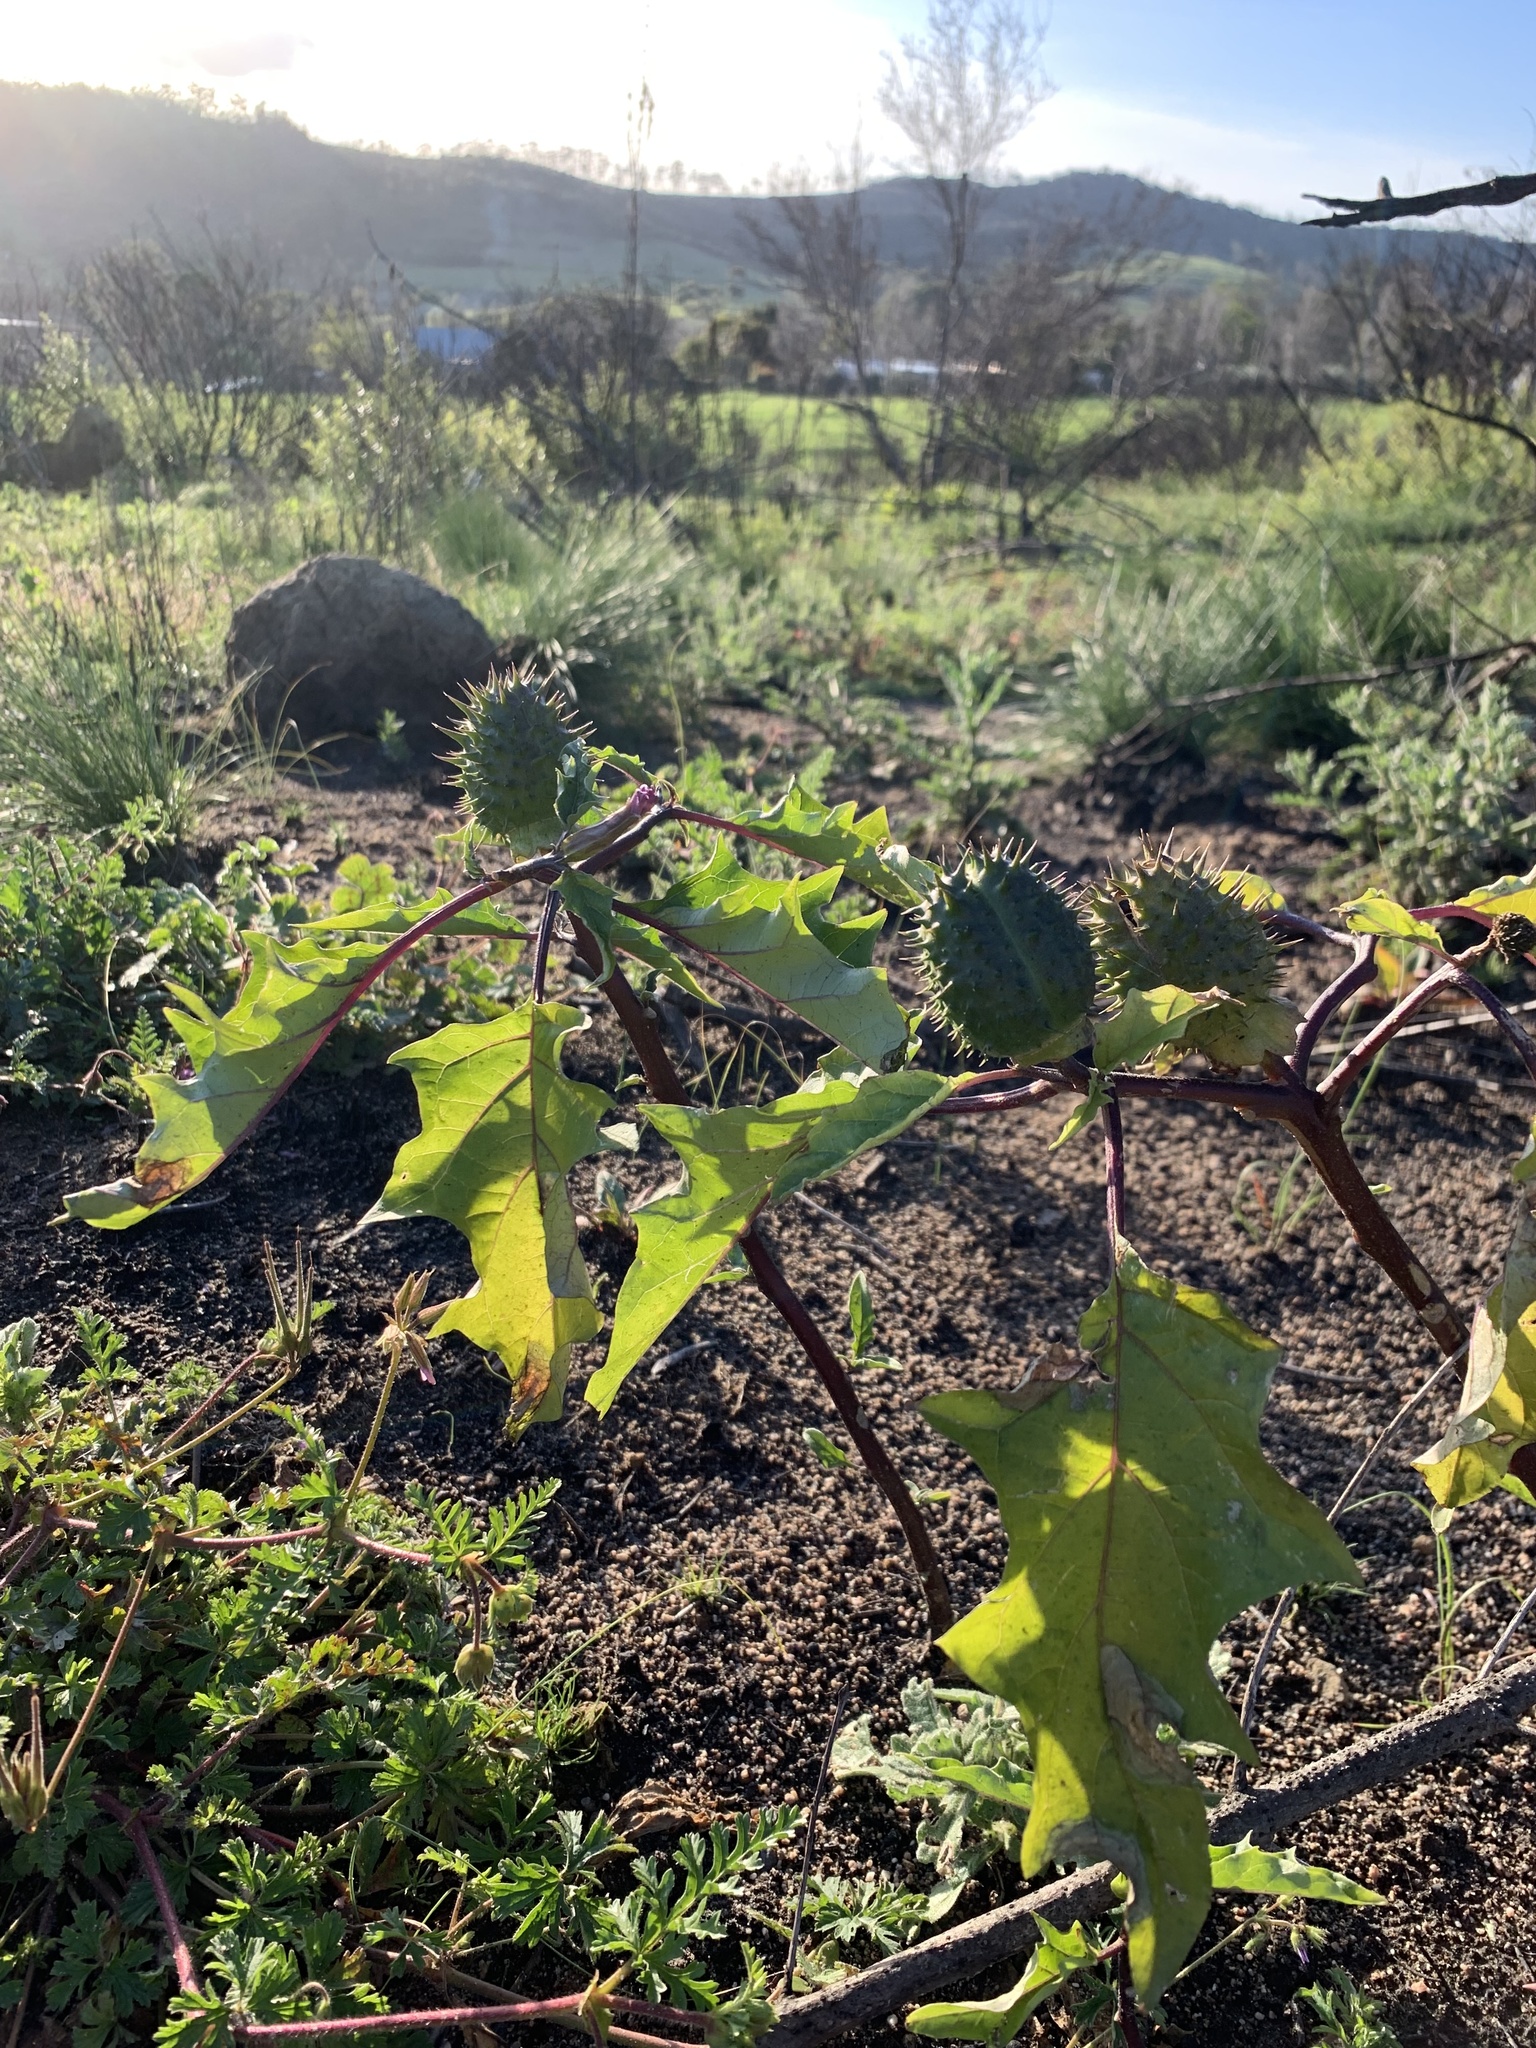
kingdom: Plantae
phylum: Tracheophyta
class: Magnoliopsida
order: Solanales
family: Solanaceae
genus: Datura
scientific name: Datura stramonium
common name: Thorn-apple
